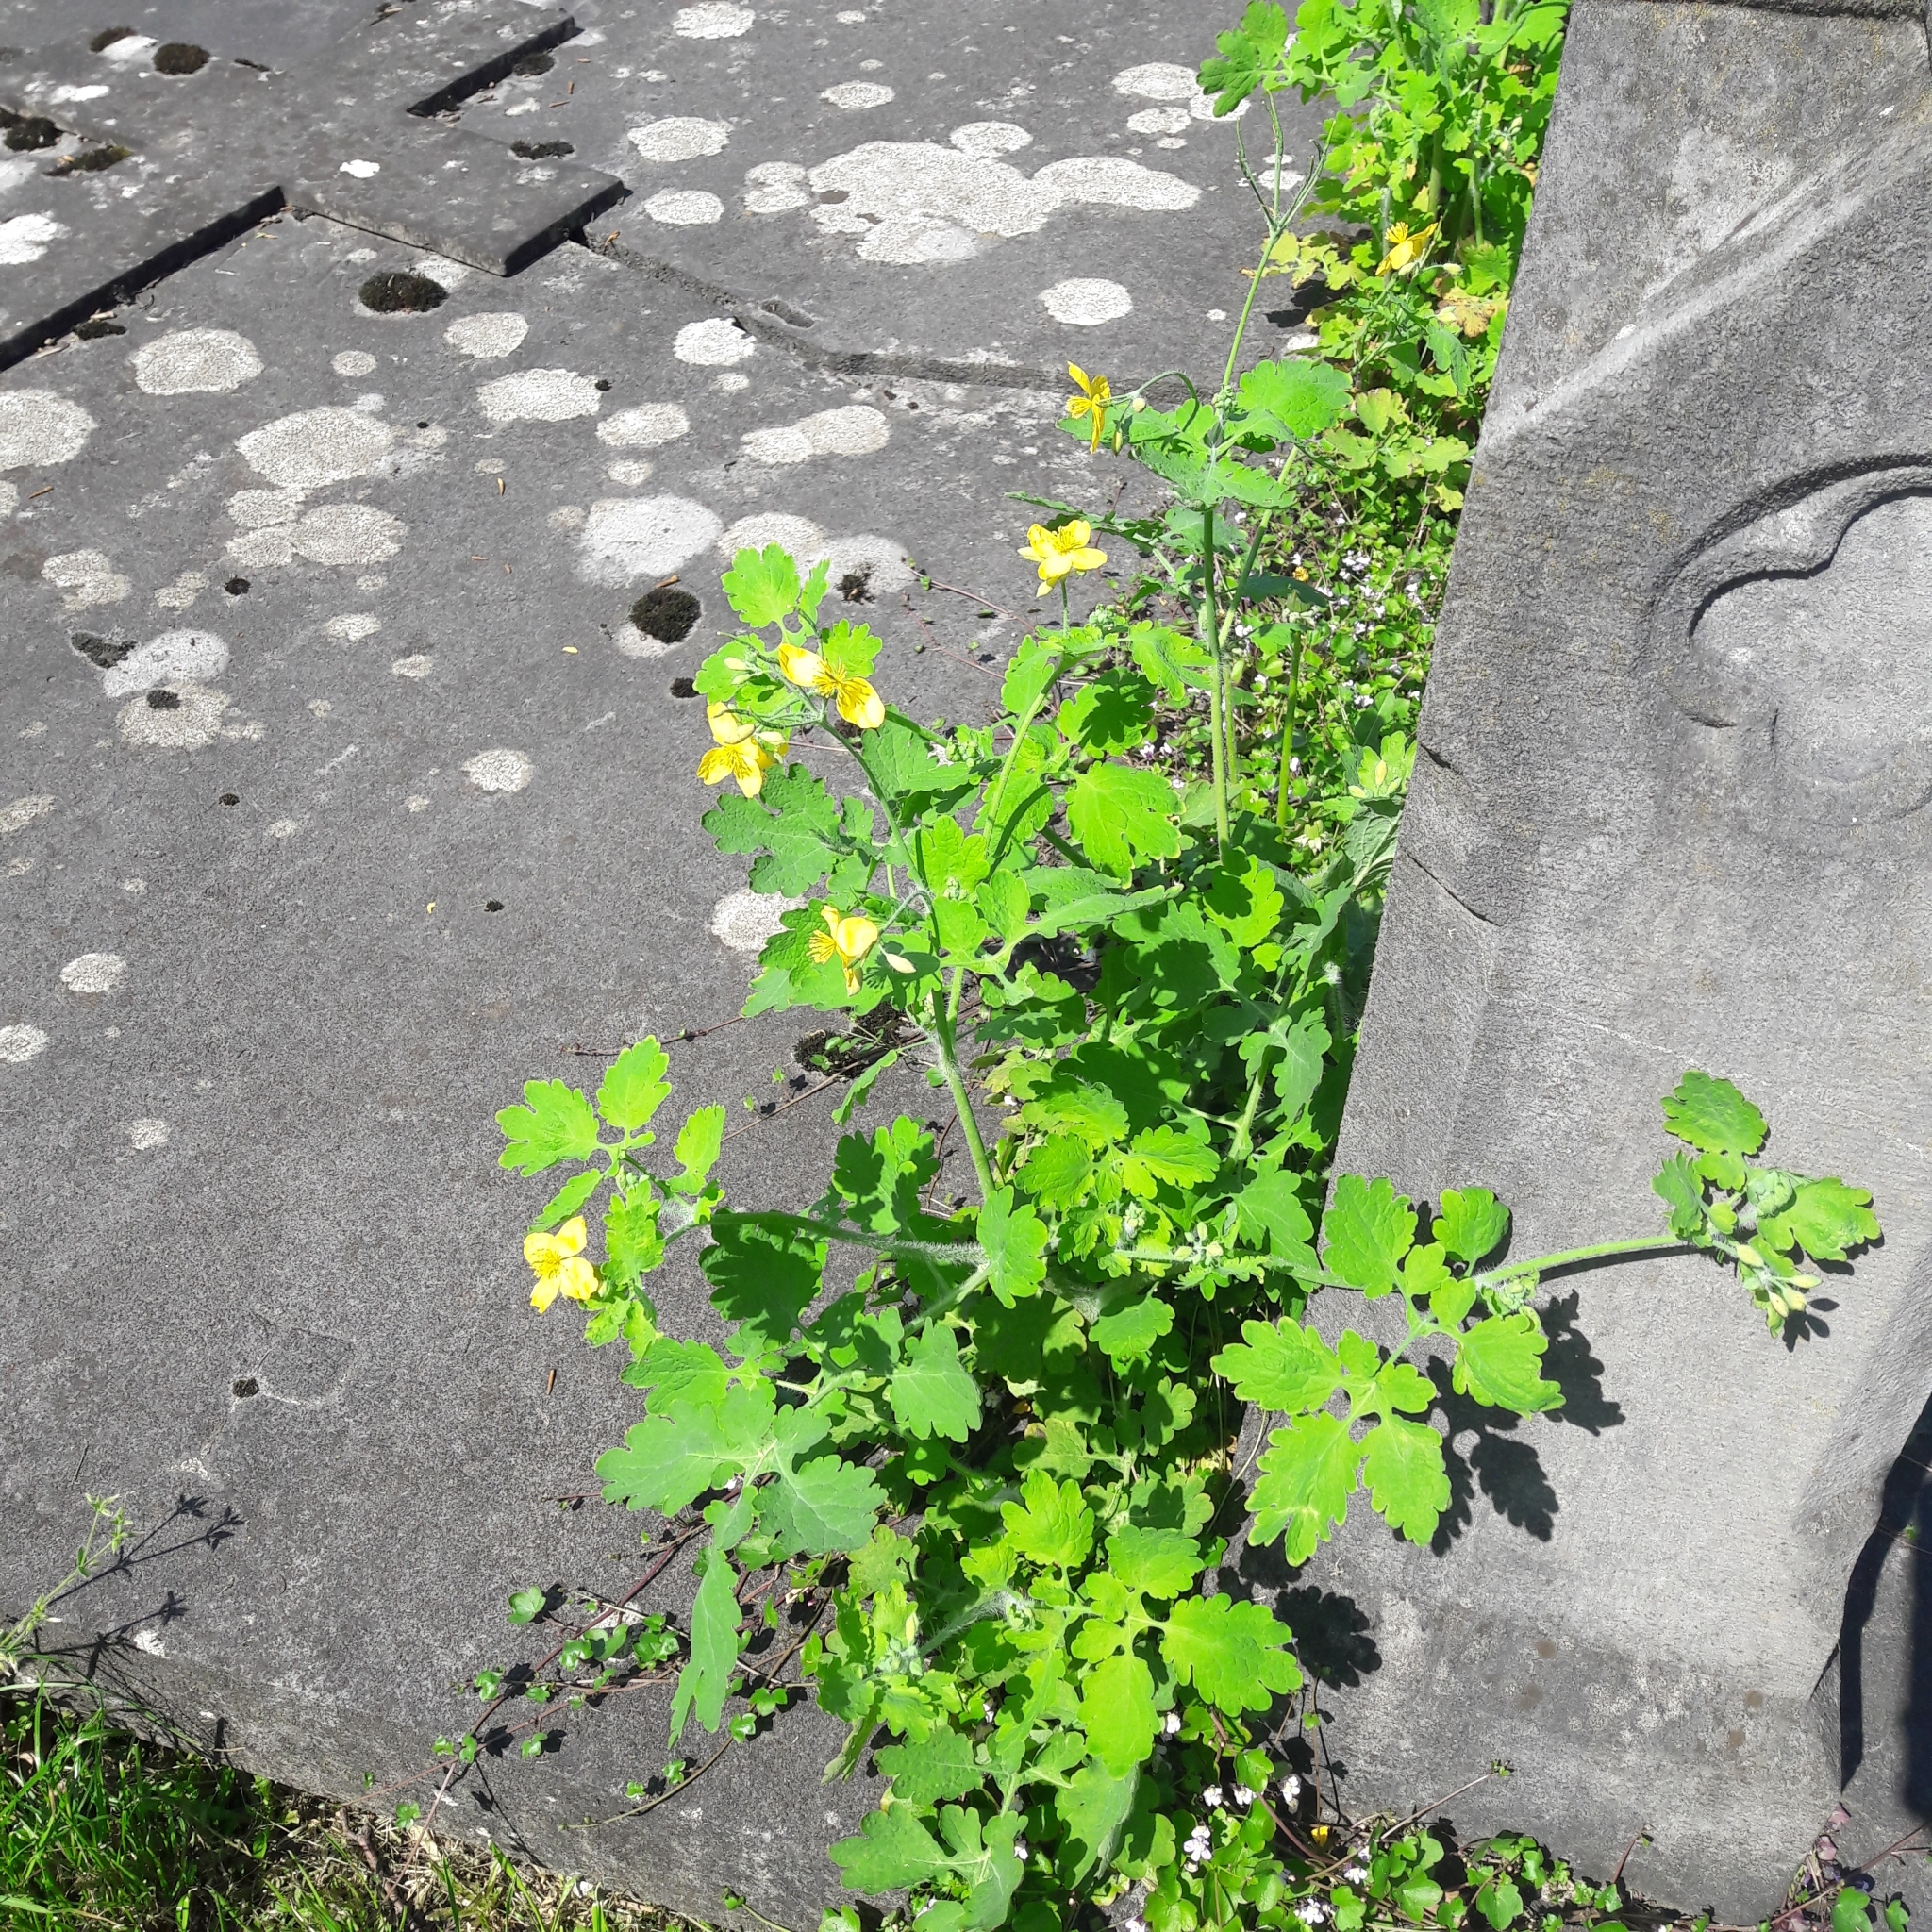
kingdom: Plantae
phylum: Tracheophyta
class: Magnoliopsida
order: Ranunculales
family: Papaveraceae
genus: Chelidonium
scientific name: Chelidonium majus
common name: Greater celandine
